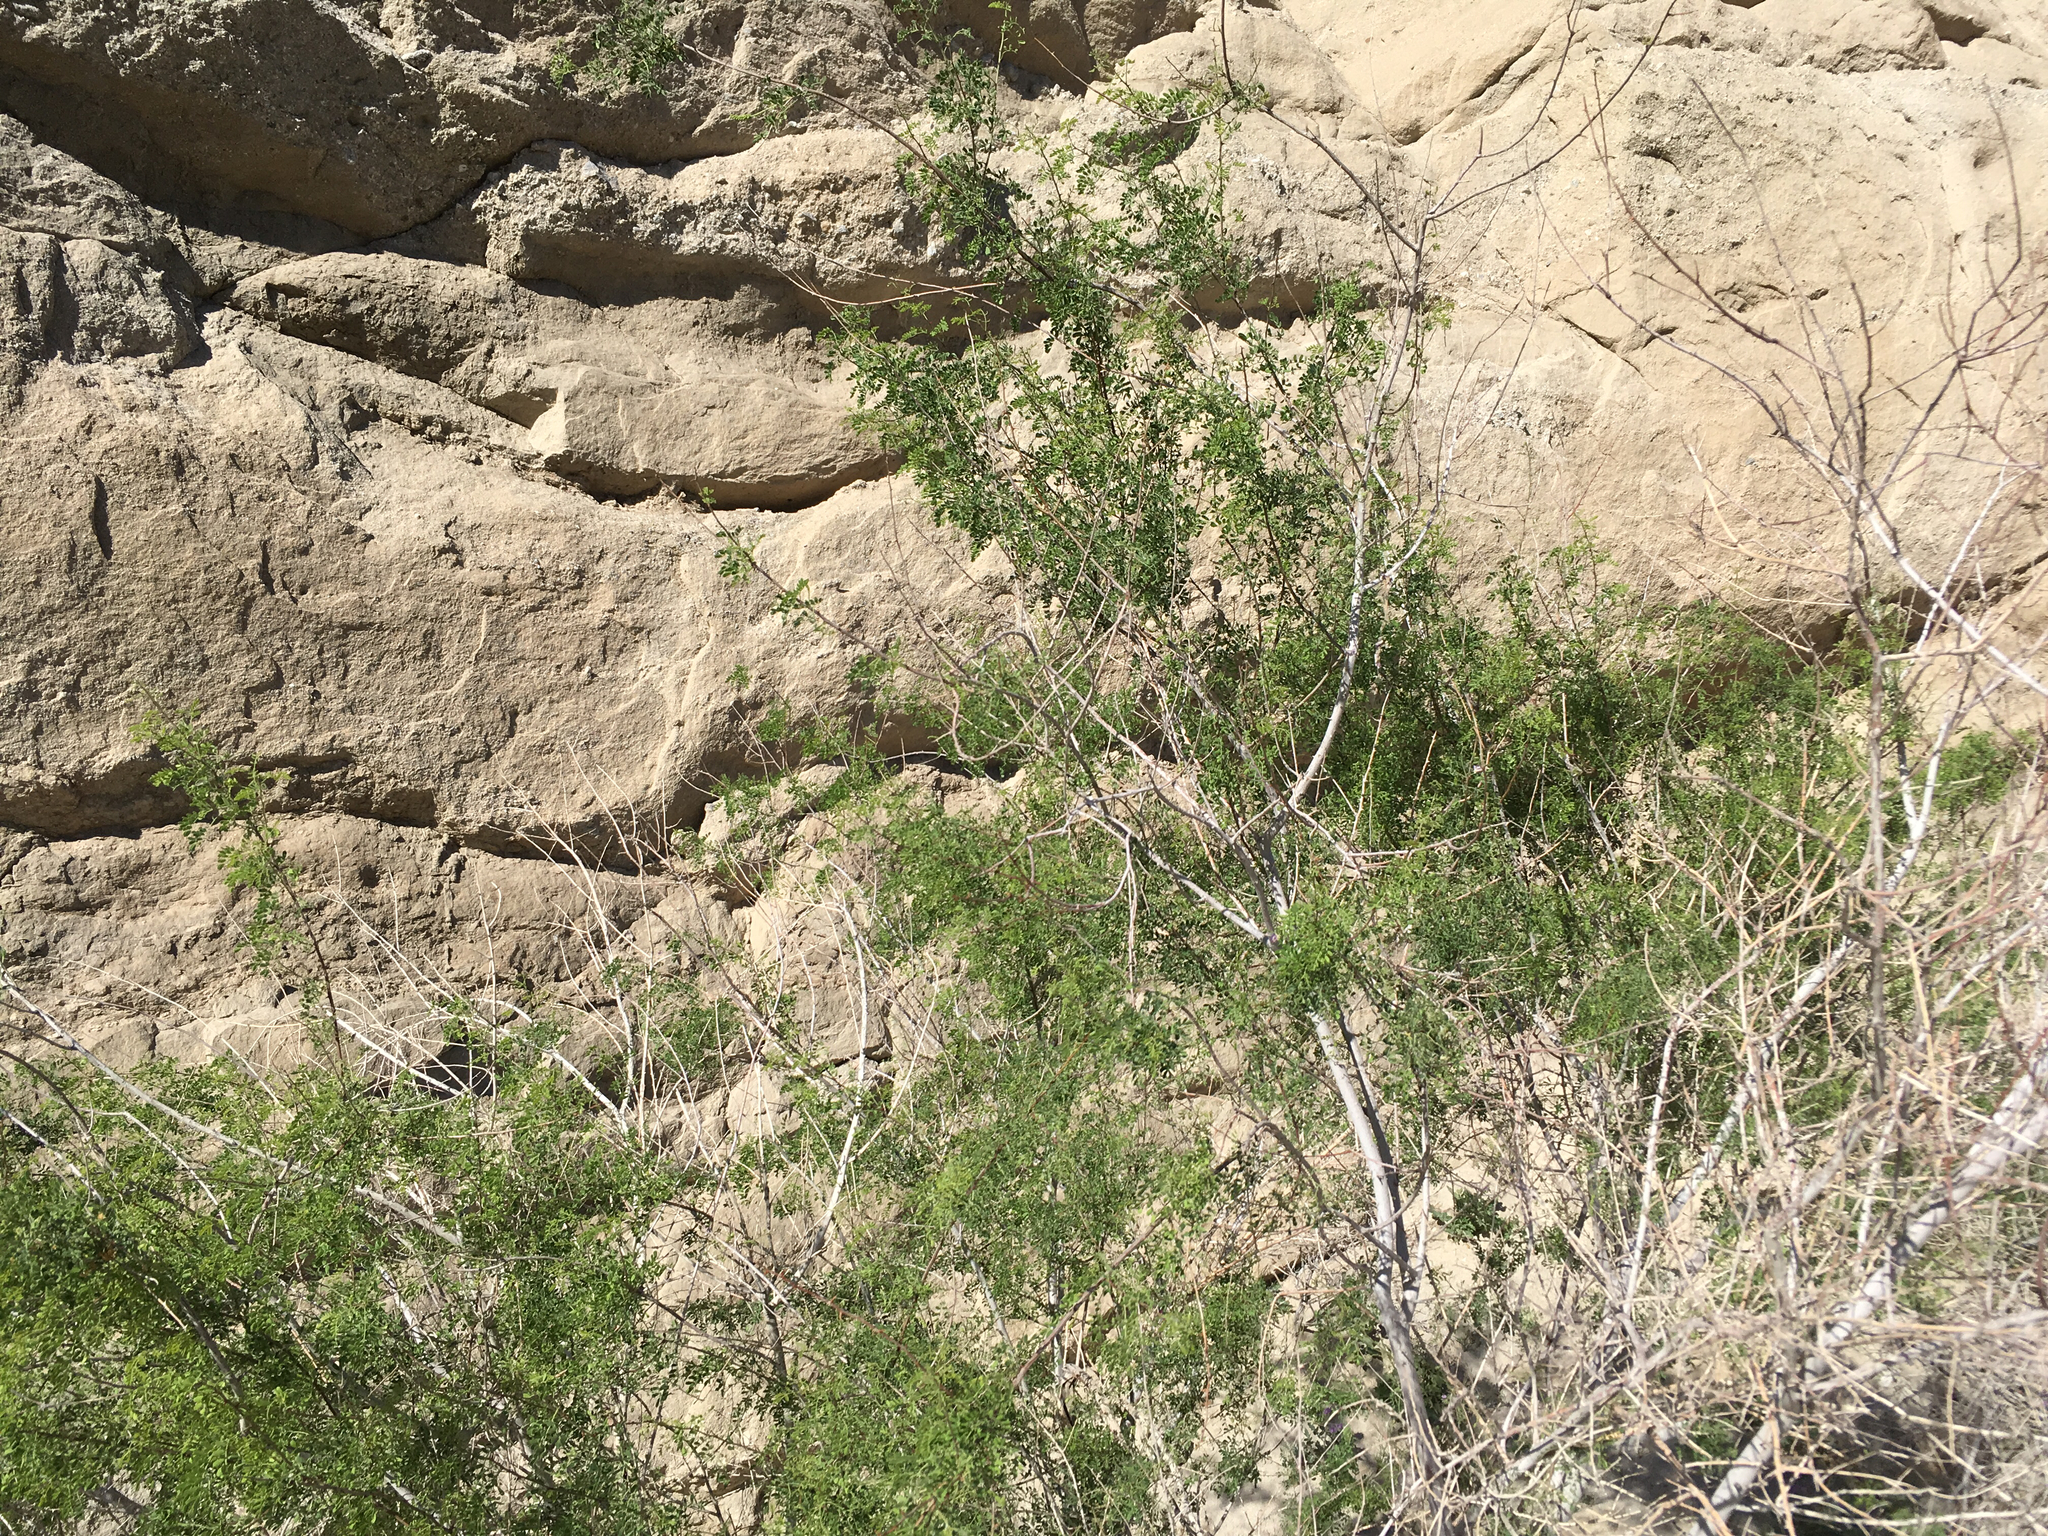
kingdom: Plantae
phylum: Tracheophyta
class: Magnoliopsida
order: Fabales
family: Fabaceae
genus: Senegalia
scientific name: Senegalia greggii
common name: Texas-mimosa
